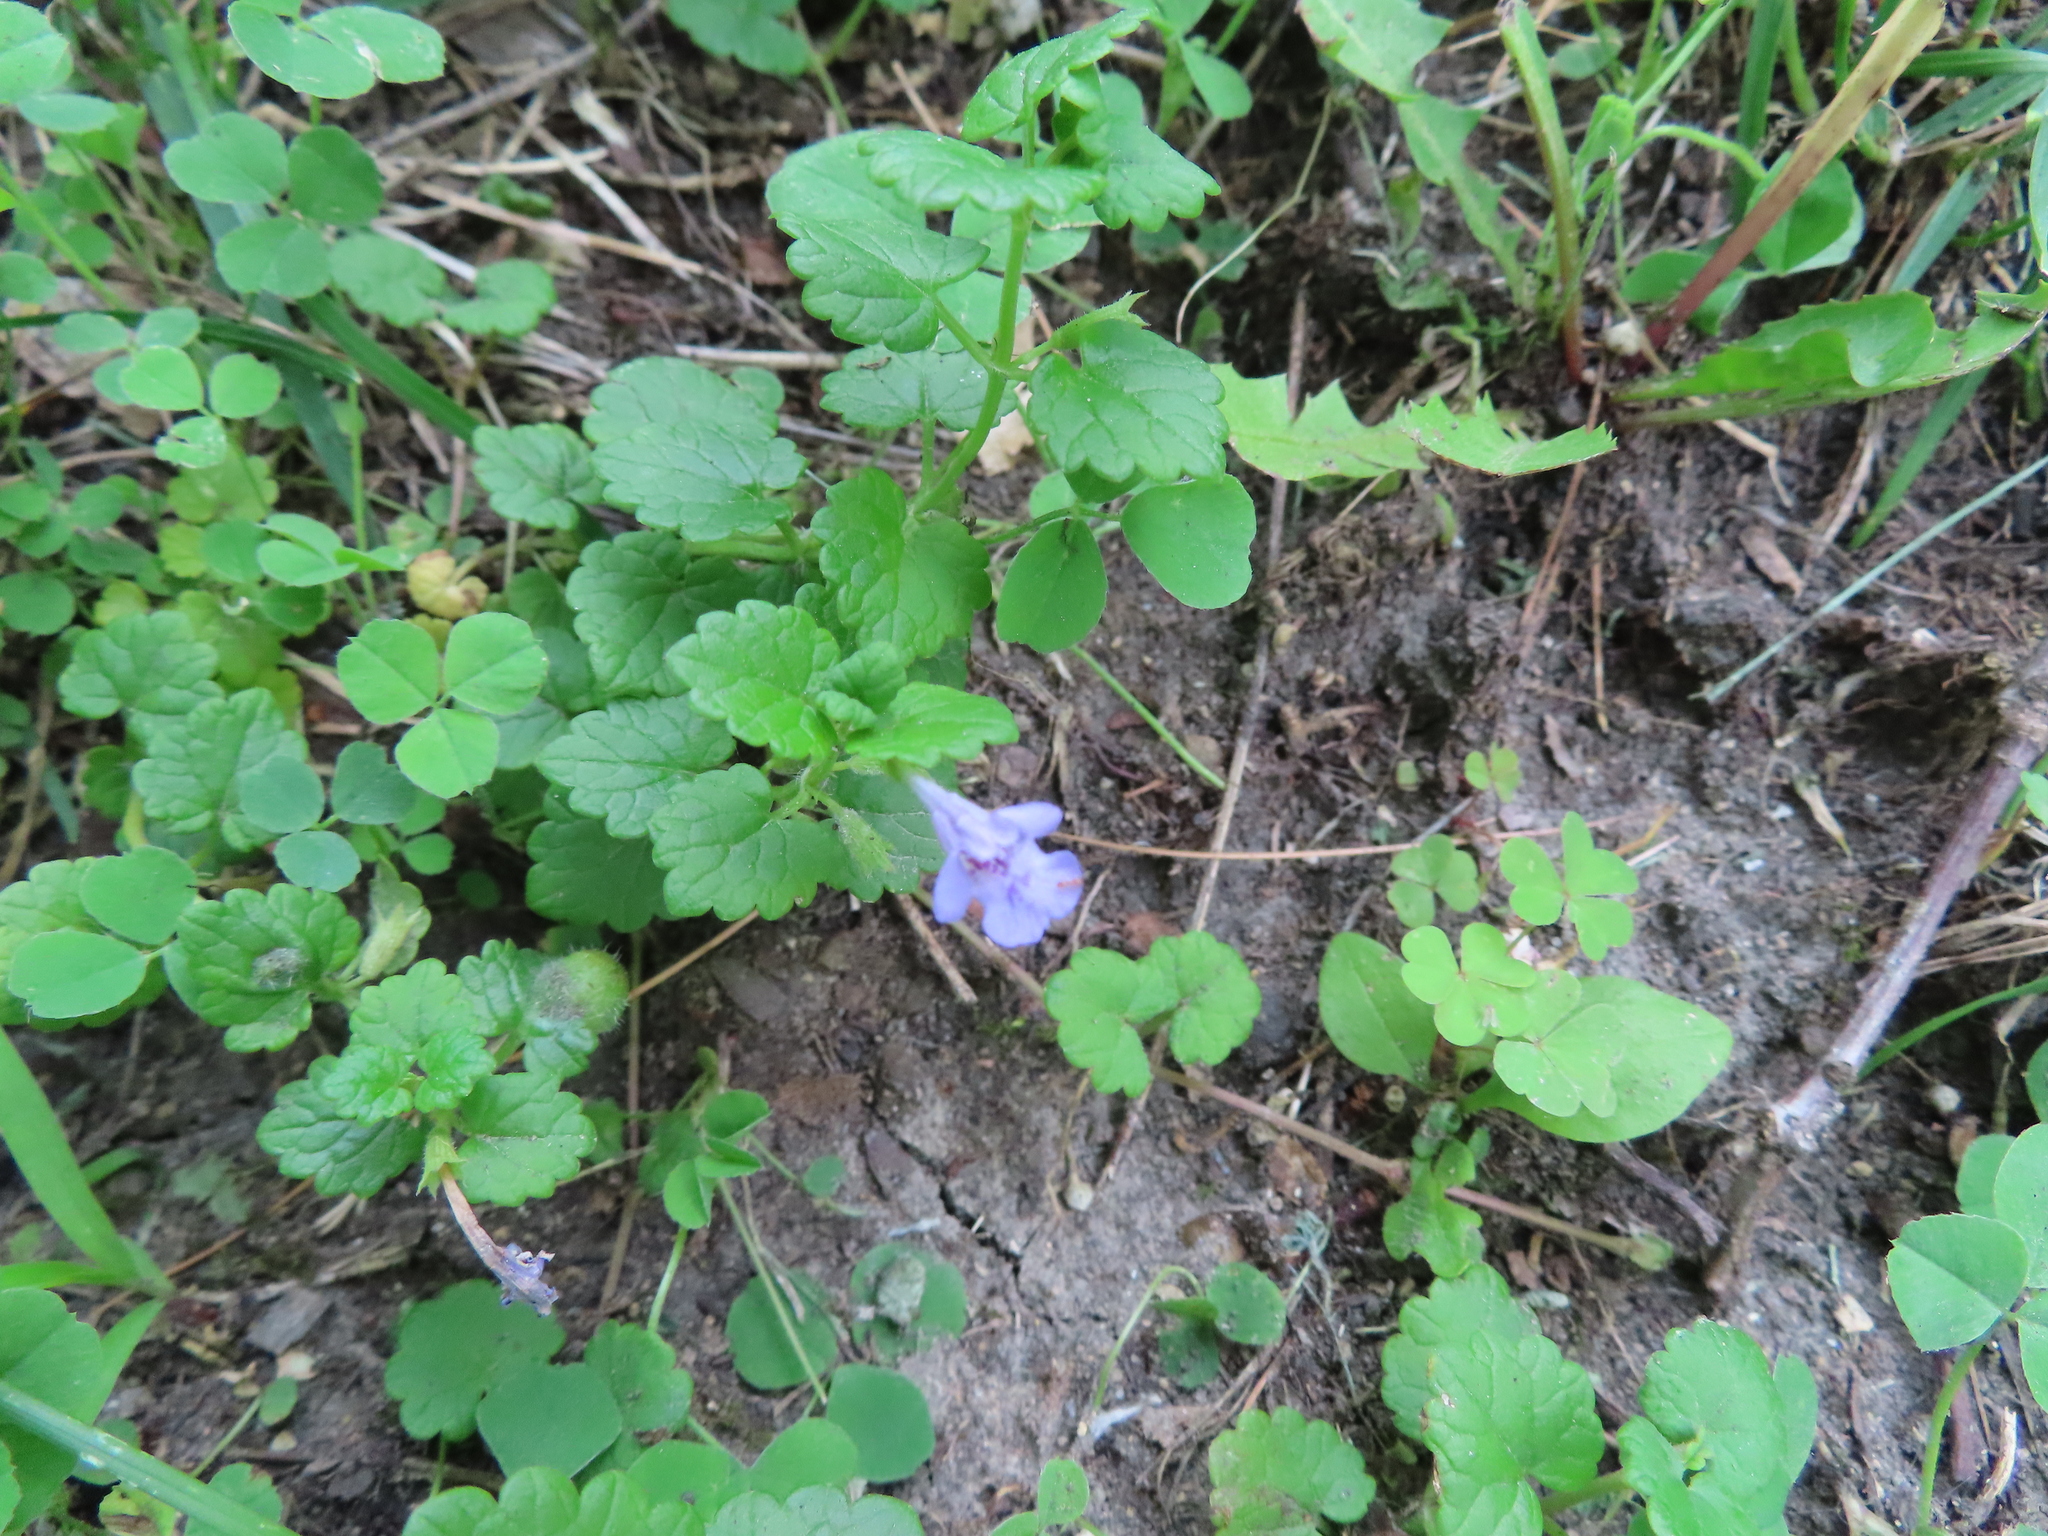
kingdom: Plantae
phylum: Tracheophyta
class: Magnoliopsida
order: Lamiales
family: Lamiaceae
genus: Glechoma
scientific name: Glechoma hederacea
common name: Ground ivy
